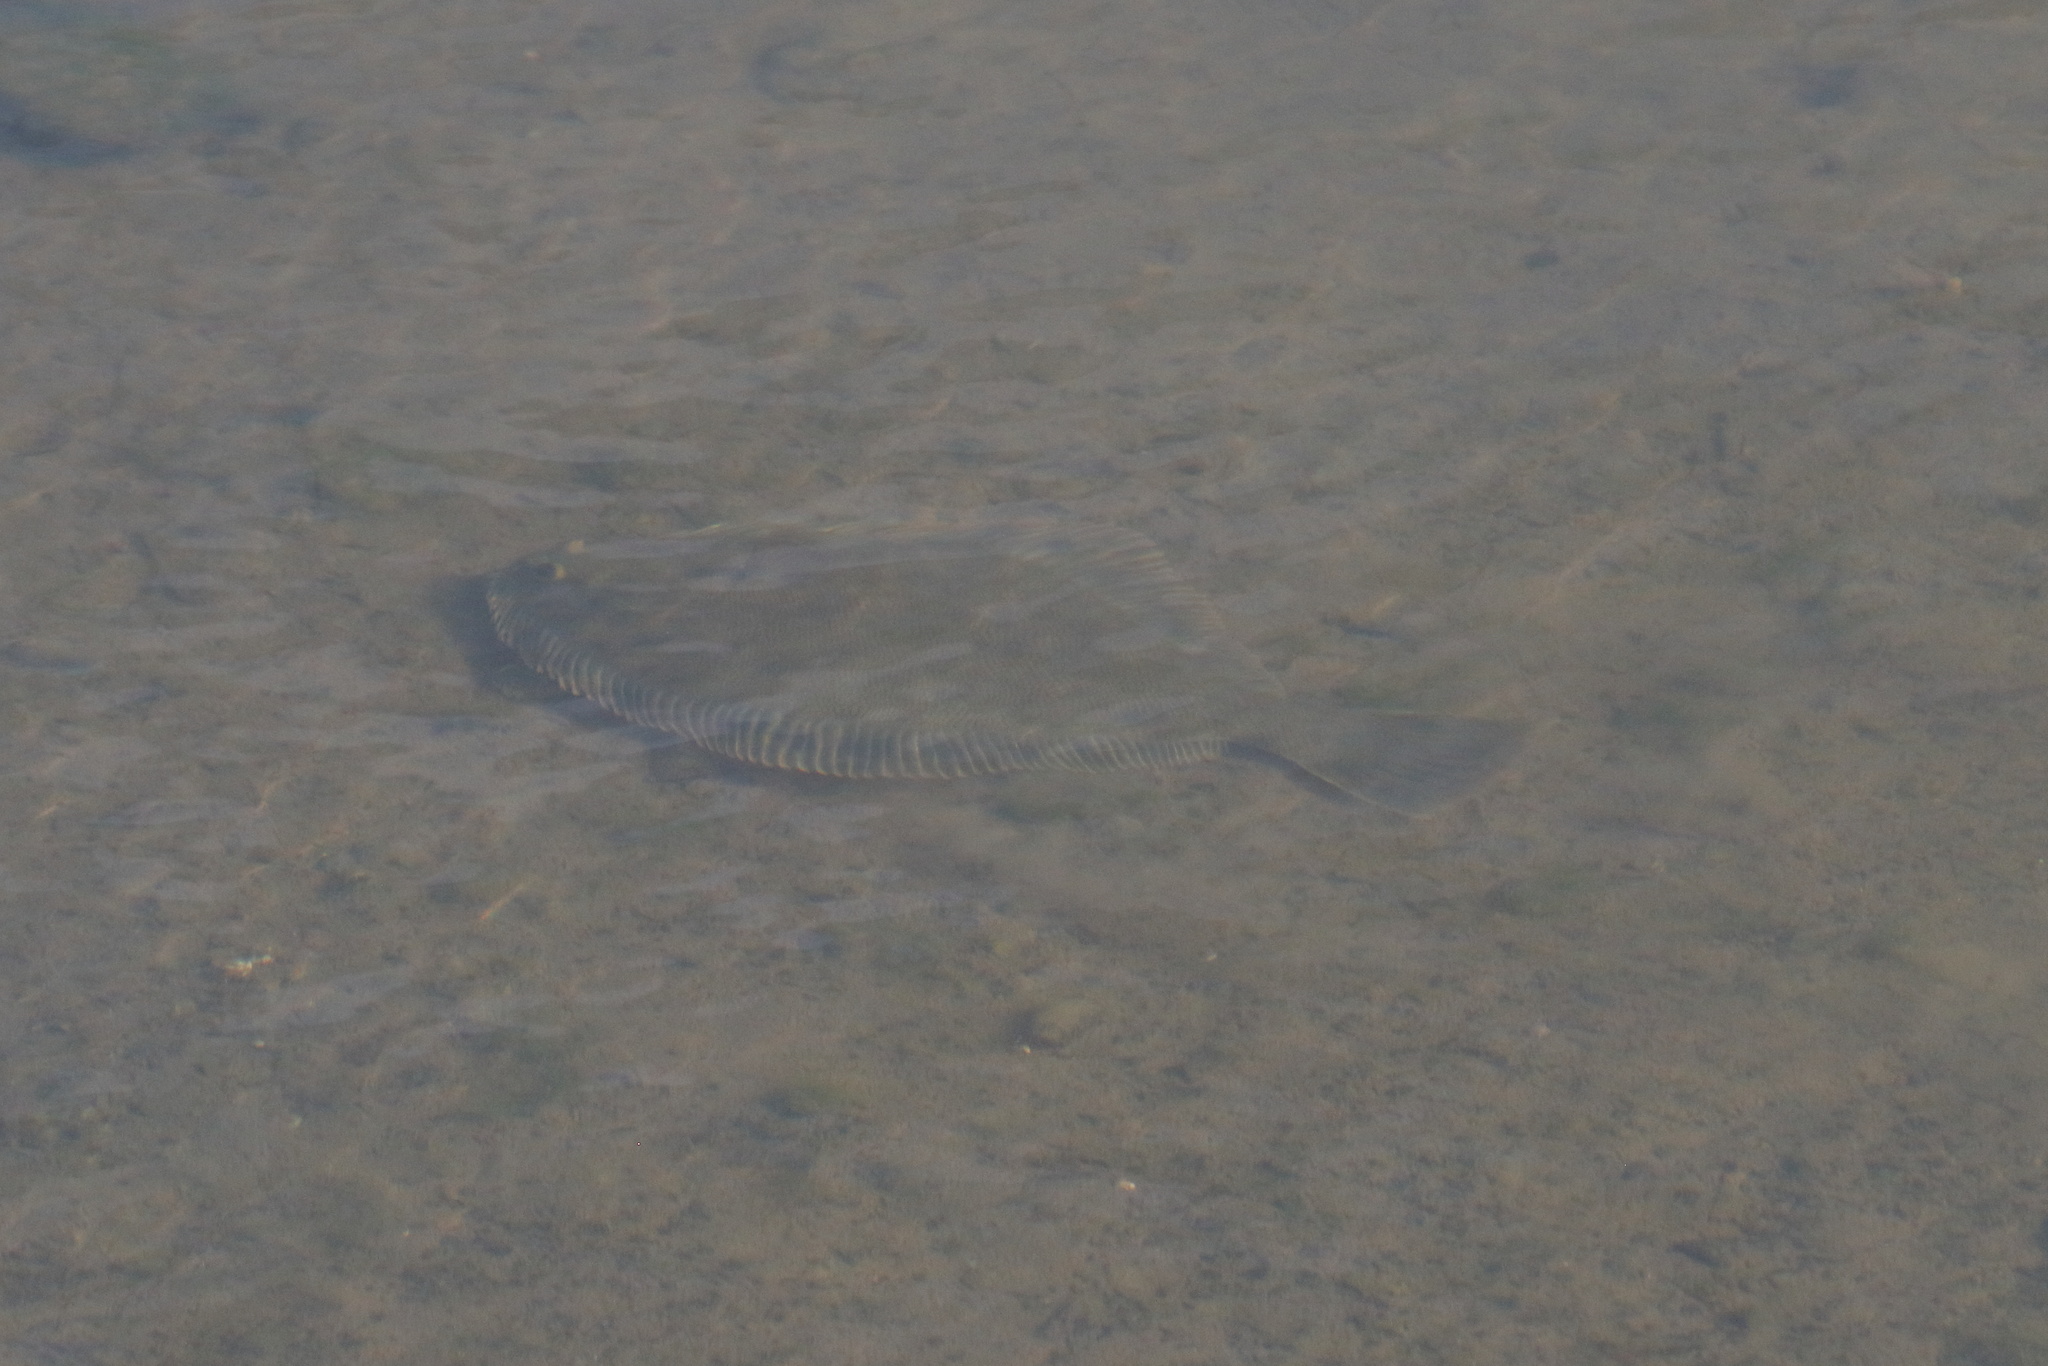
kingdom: Animalia
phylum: Chordata
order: Pleuronectiformes
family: Pleuronectidae
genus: Rhombosolea
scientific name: Rhombosolea plebeia
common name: Dab
